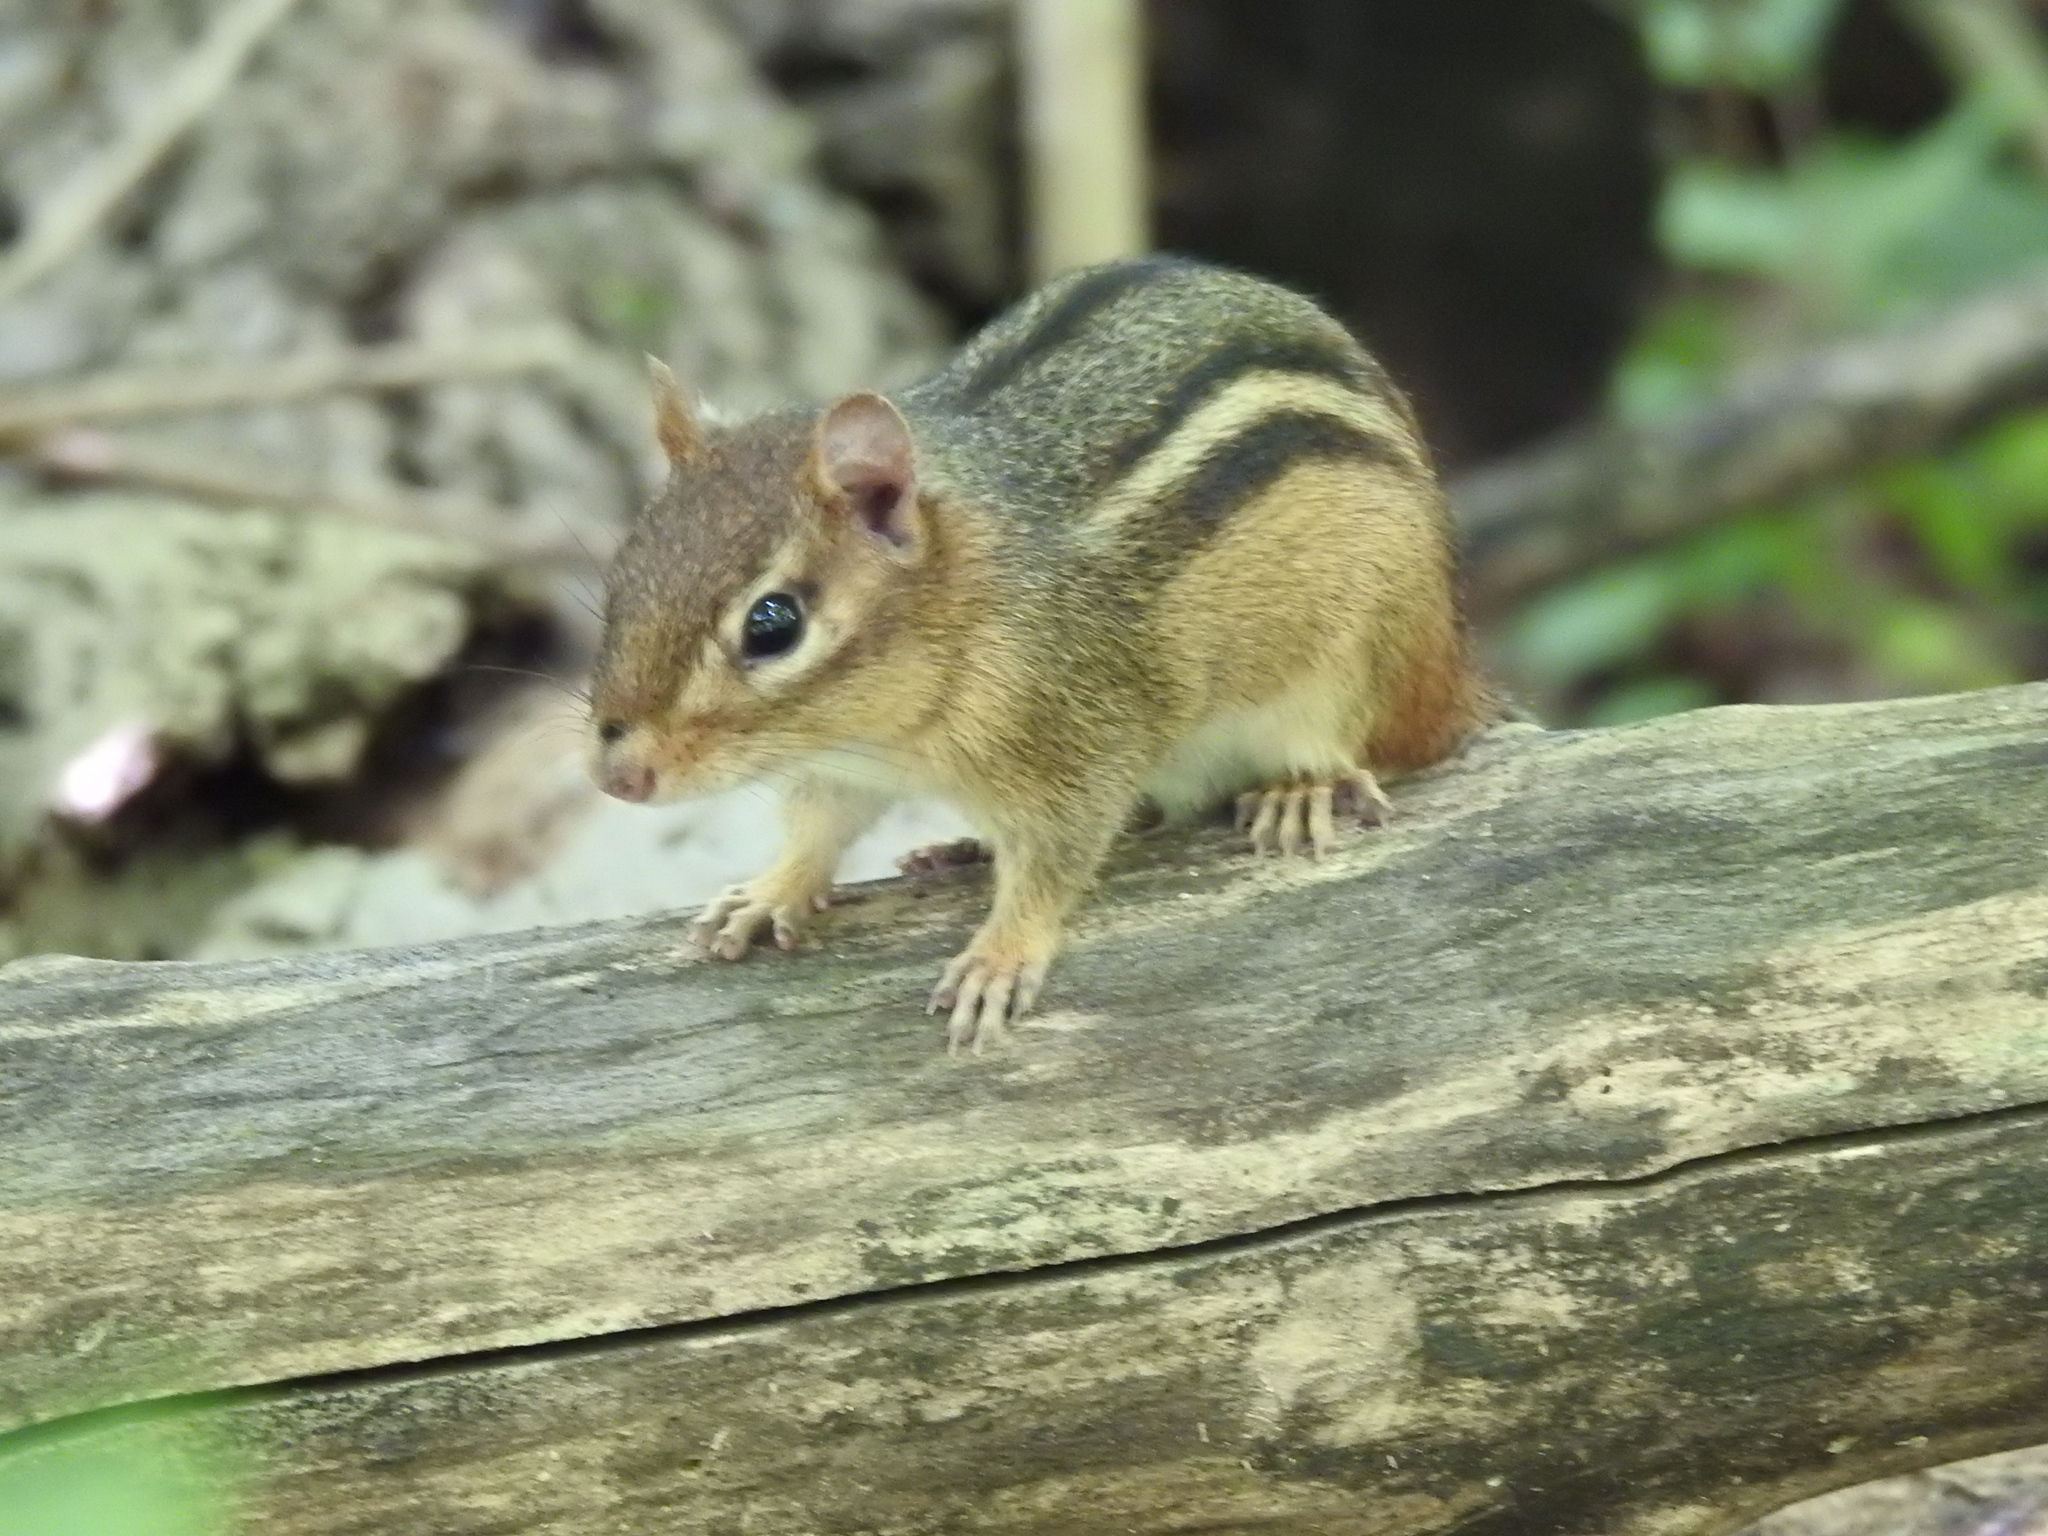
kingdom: Animalia
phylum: Chordata
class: Mammalia
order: Rodentia
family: Sciuridae
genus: Tamias
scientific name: Tamias striatus
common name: Eastern chipmunk
